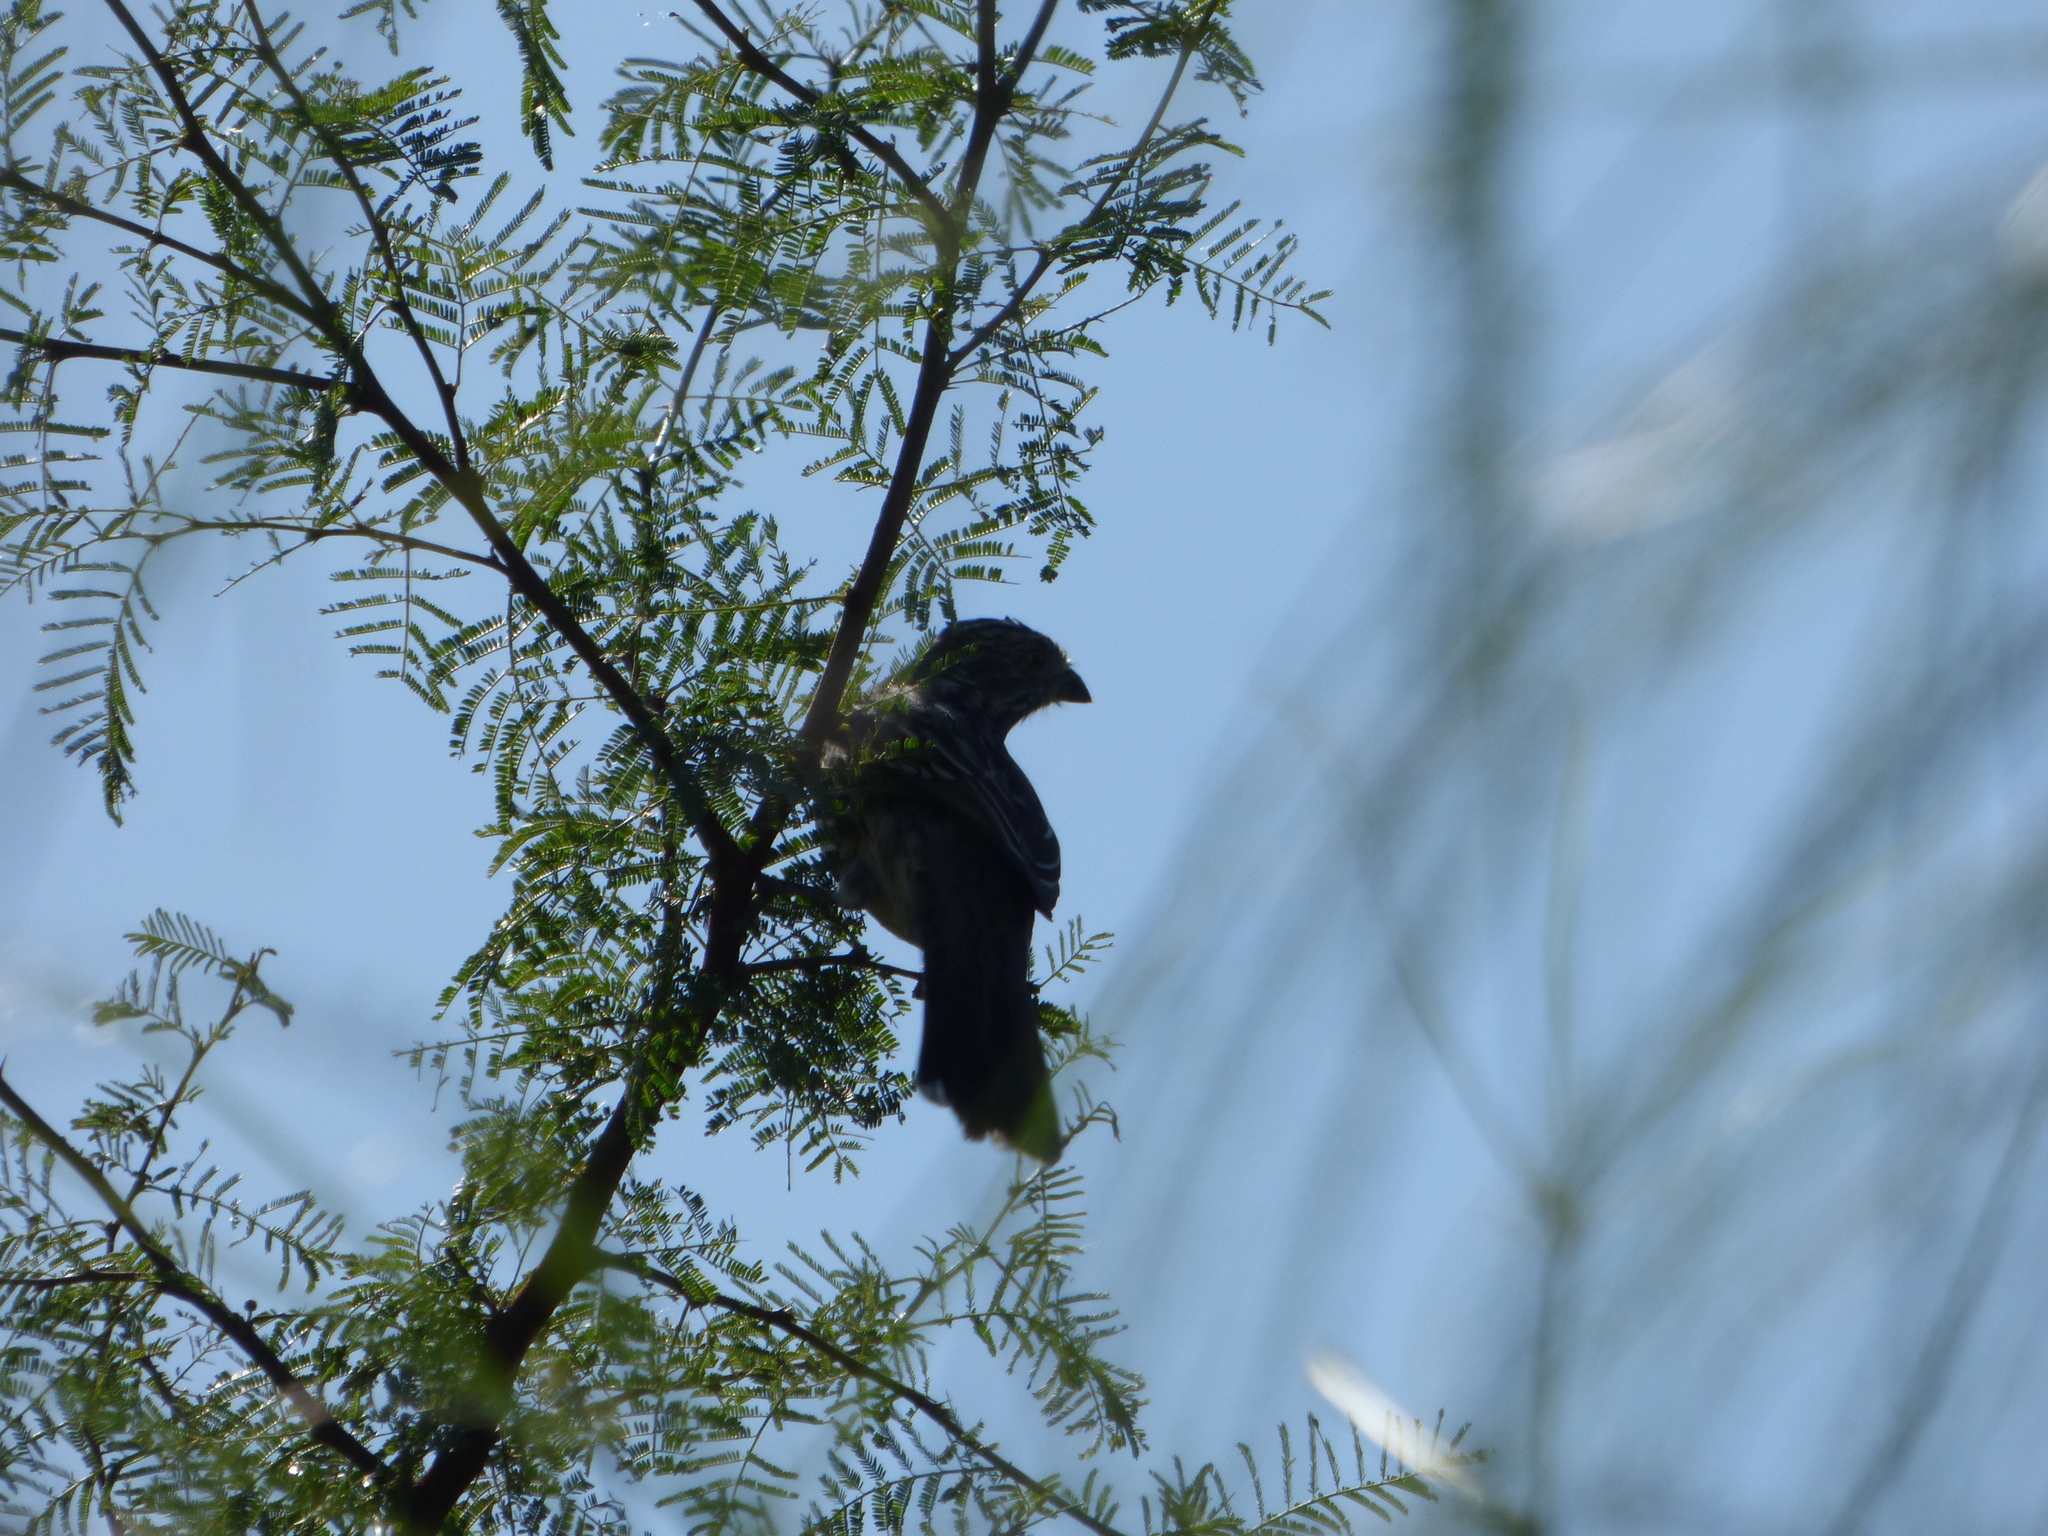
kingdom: Animalia
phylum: Chordata
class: Aves
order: Passeriformes
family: Cotingidae
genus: Phytotoma
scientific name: Phytotoma rutila
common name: White-tipped plantcutter
